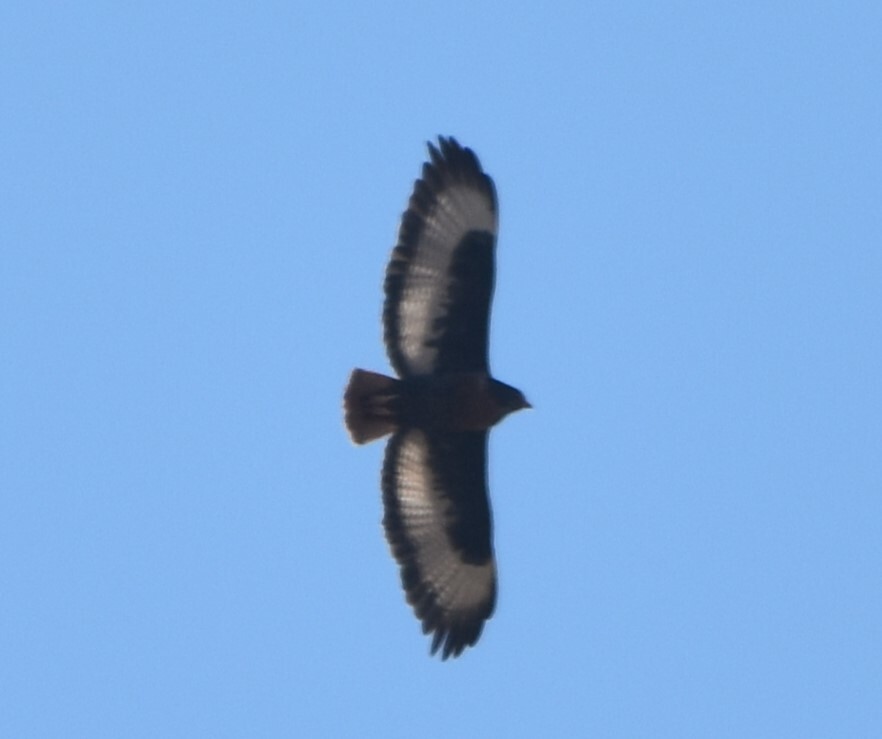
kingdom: Animalia
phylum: Chordata
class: Aves
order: Accipitriformes
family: Accipitridae
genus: Buteo
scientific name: Buteo rufofuscus
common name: Jackal buzzard
